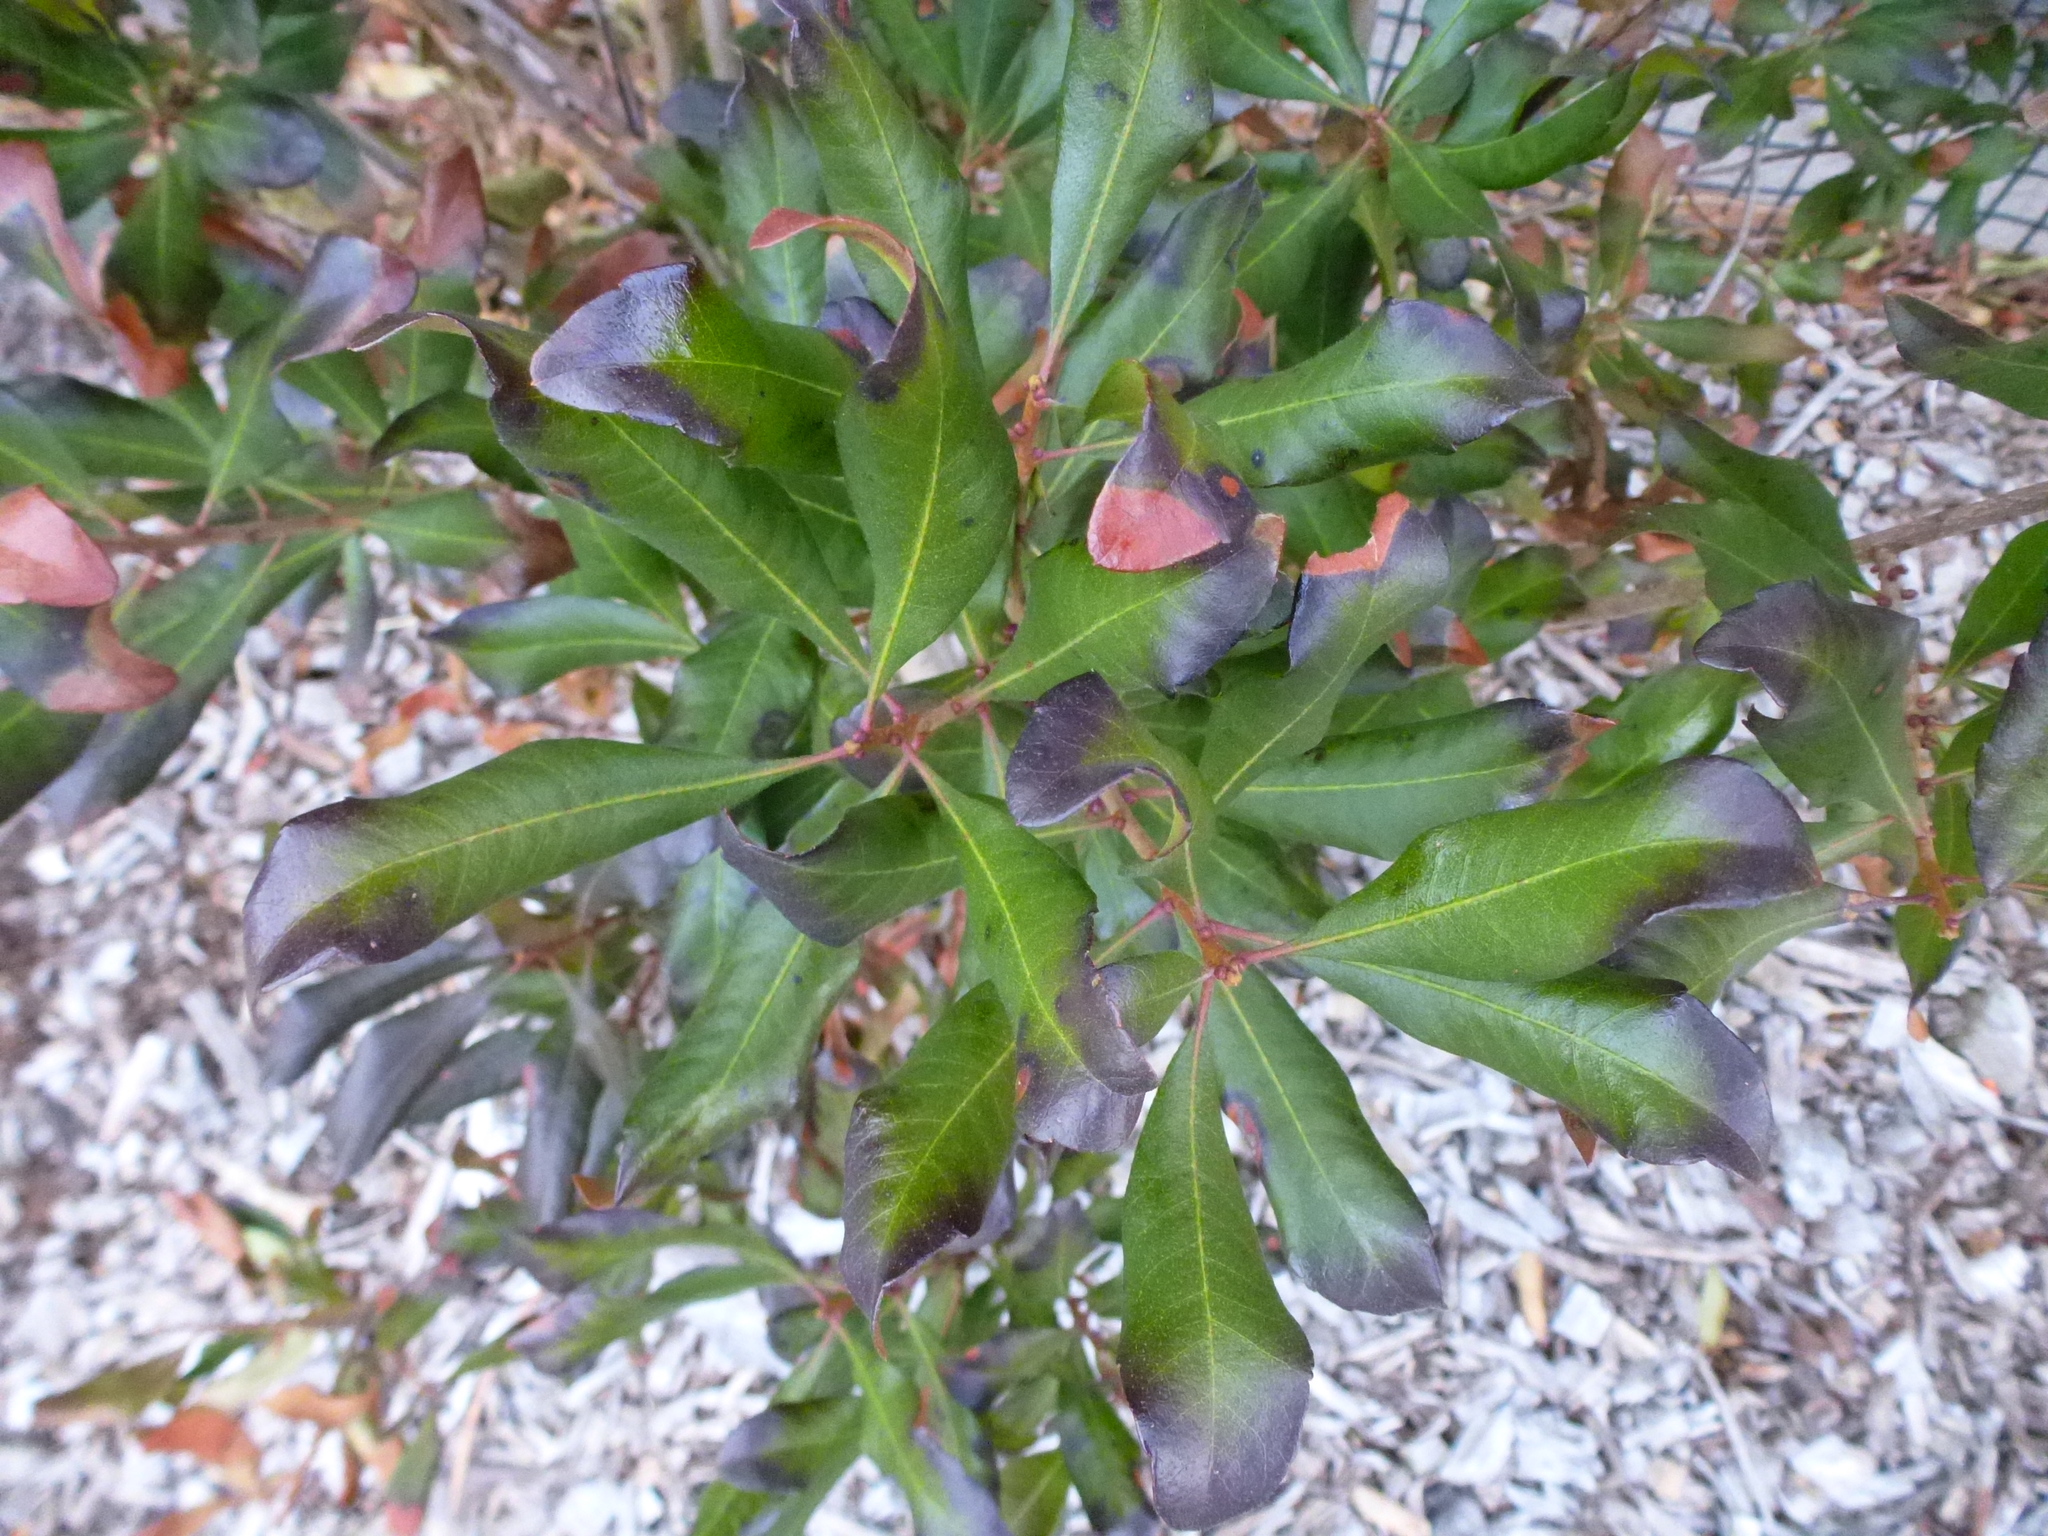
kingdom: Plantae
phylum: Tracheophyta
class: Magnoliopsida
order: Fagales
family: Myricaceae
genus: Morella
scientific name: Morella pensylvanica
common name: Northern bayberry
